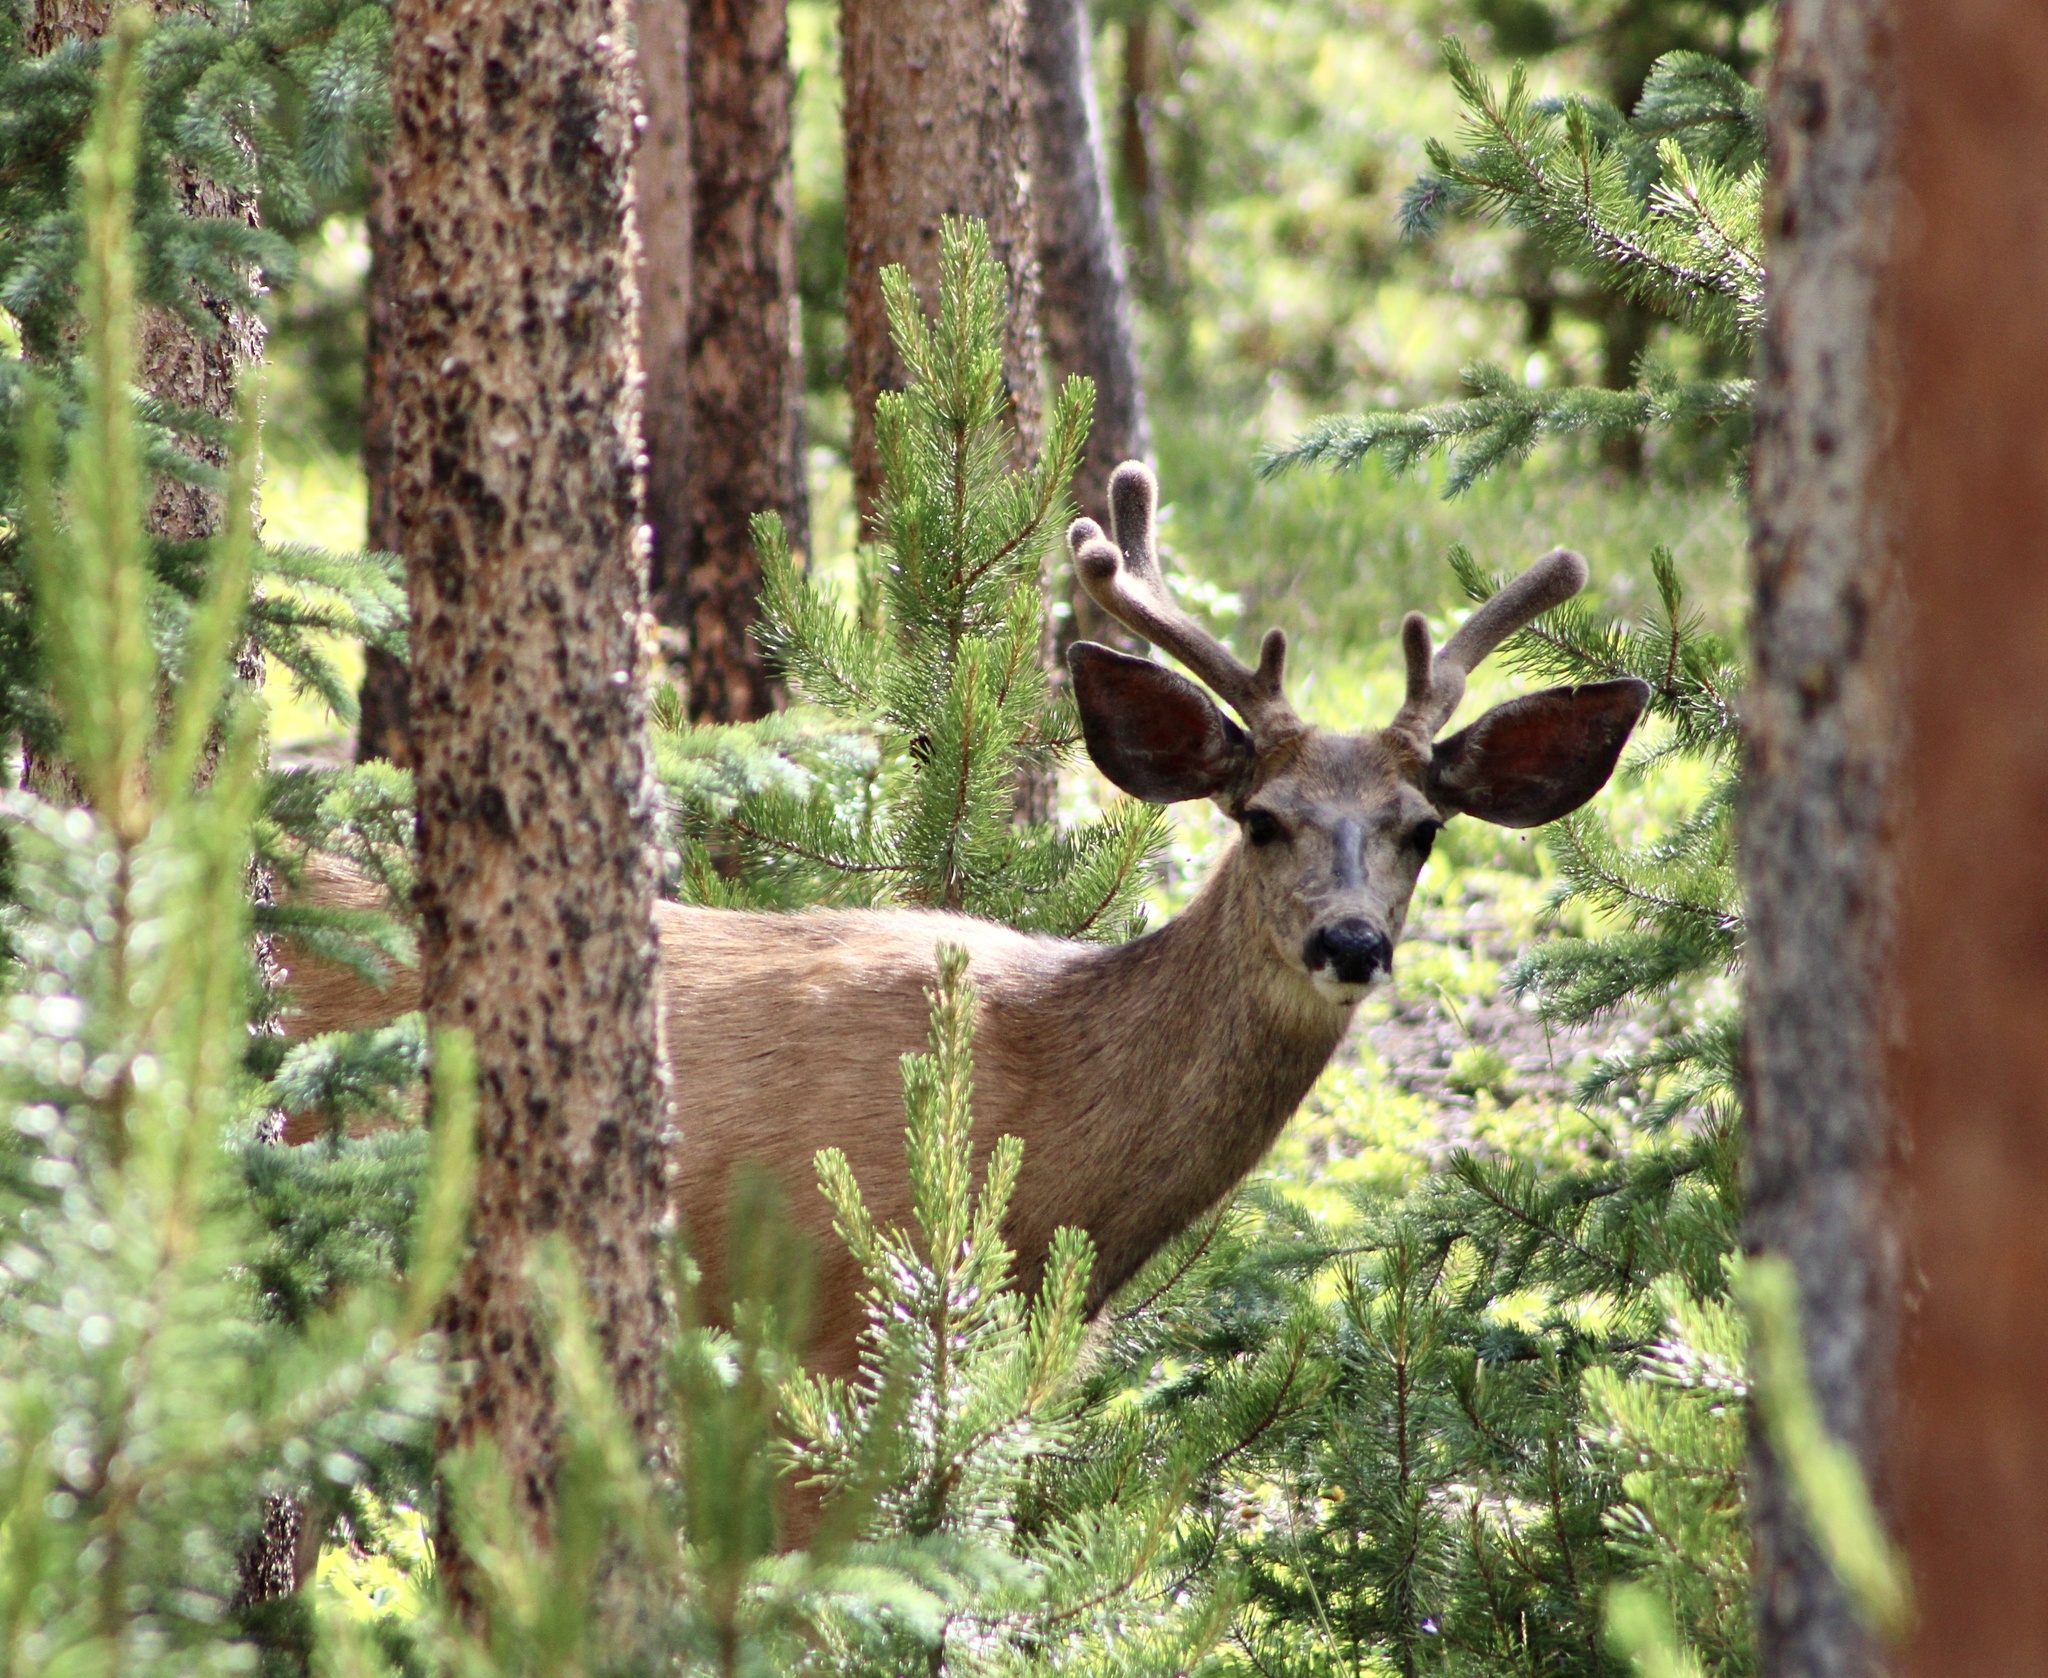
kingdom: Animalia
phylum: Chordata
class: Mammalia
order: Artiodactyla
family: Cervidae
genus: Odocoileus
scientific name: Odocoileus hemionus
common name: Mule deer
